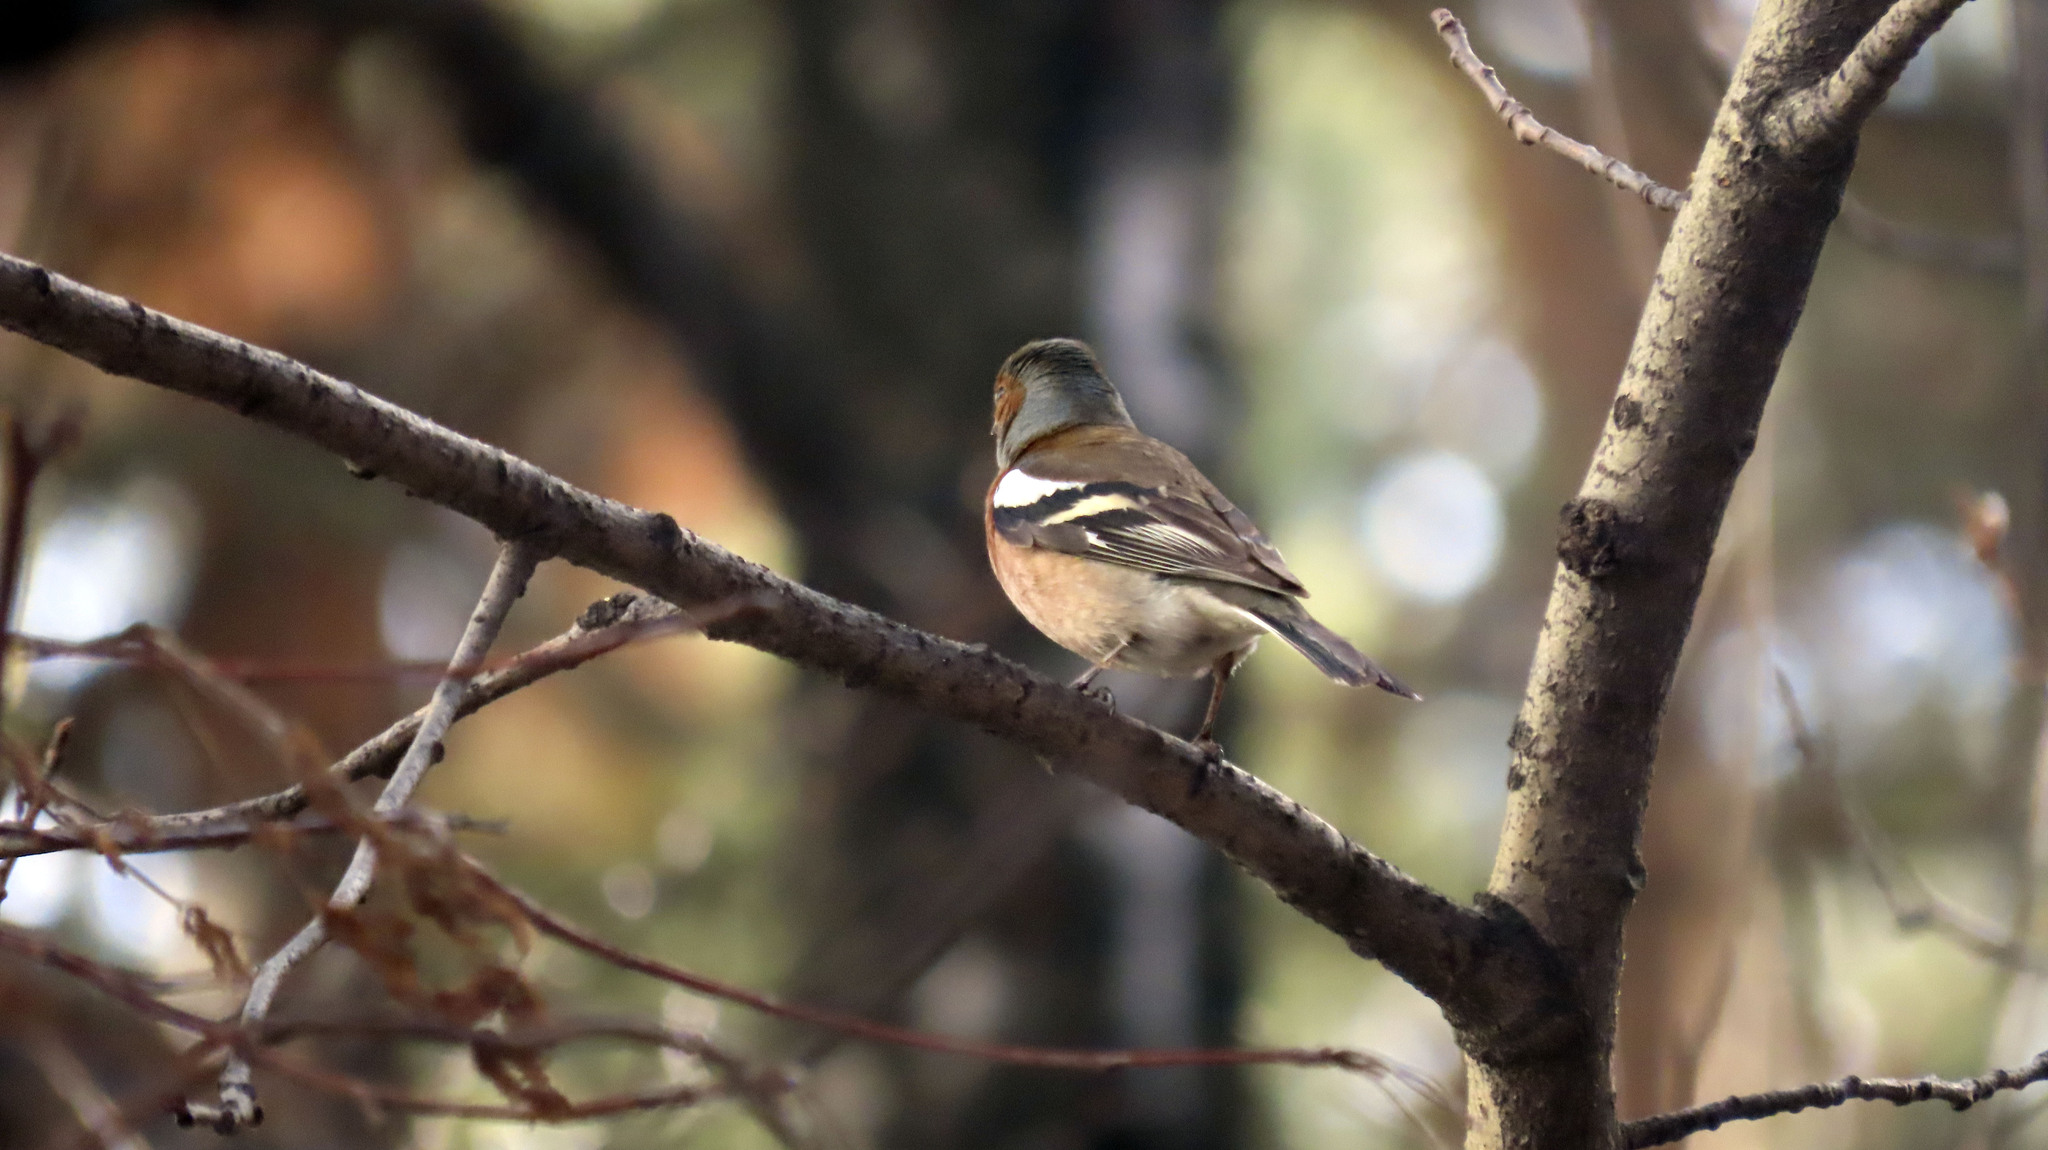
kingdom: Animalia
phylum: Chordata
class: Aves
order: Passeriformes
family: Fringillidae
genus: Fringilla
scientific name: Fringilla coelebs
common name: Common chaffinch
